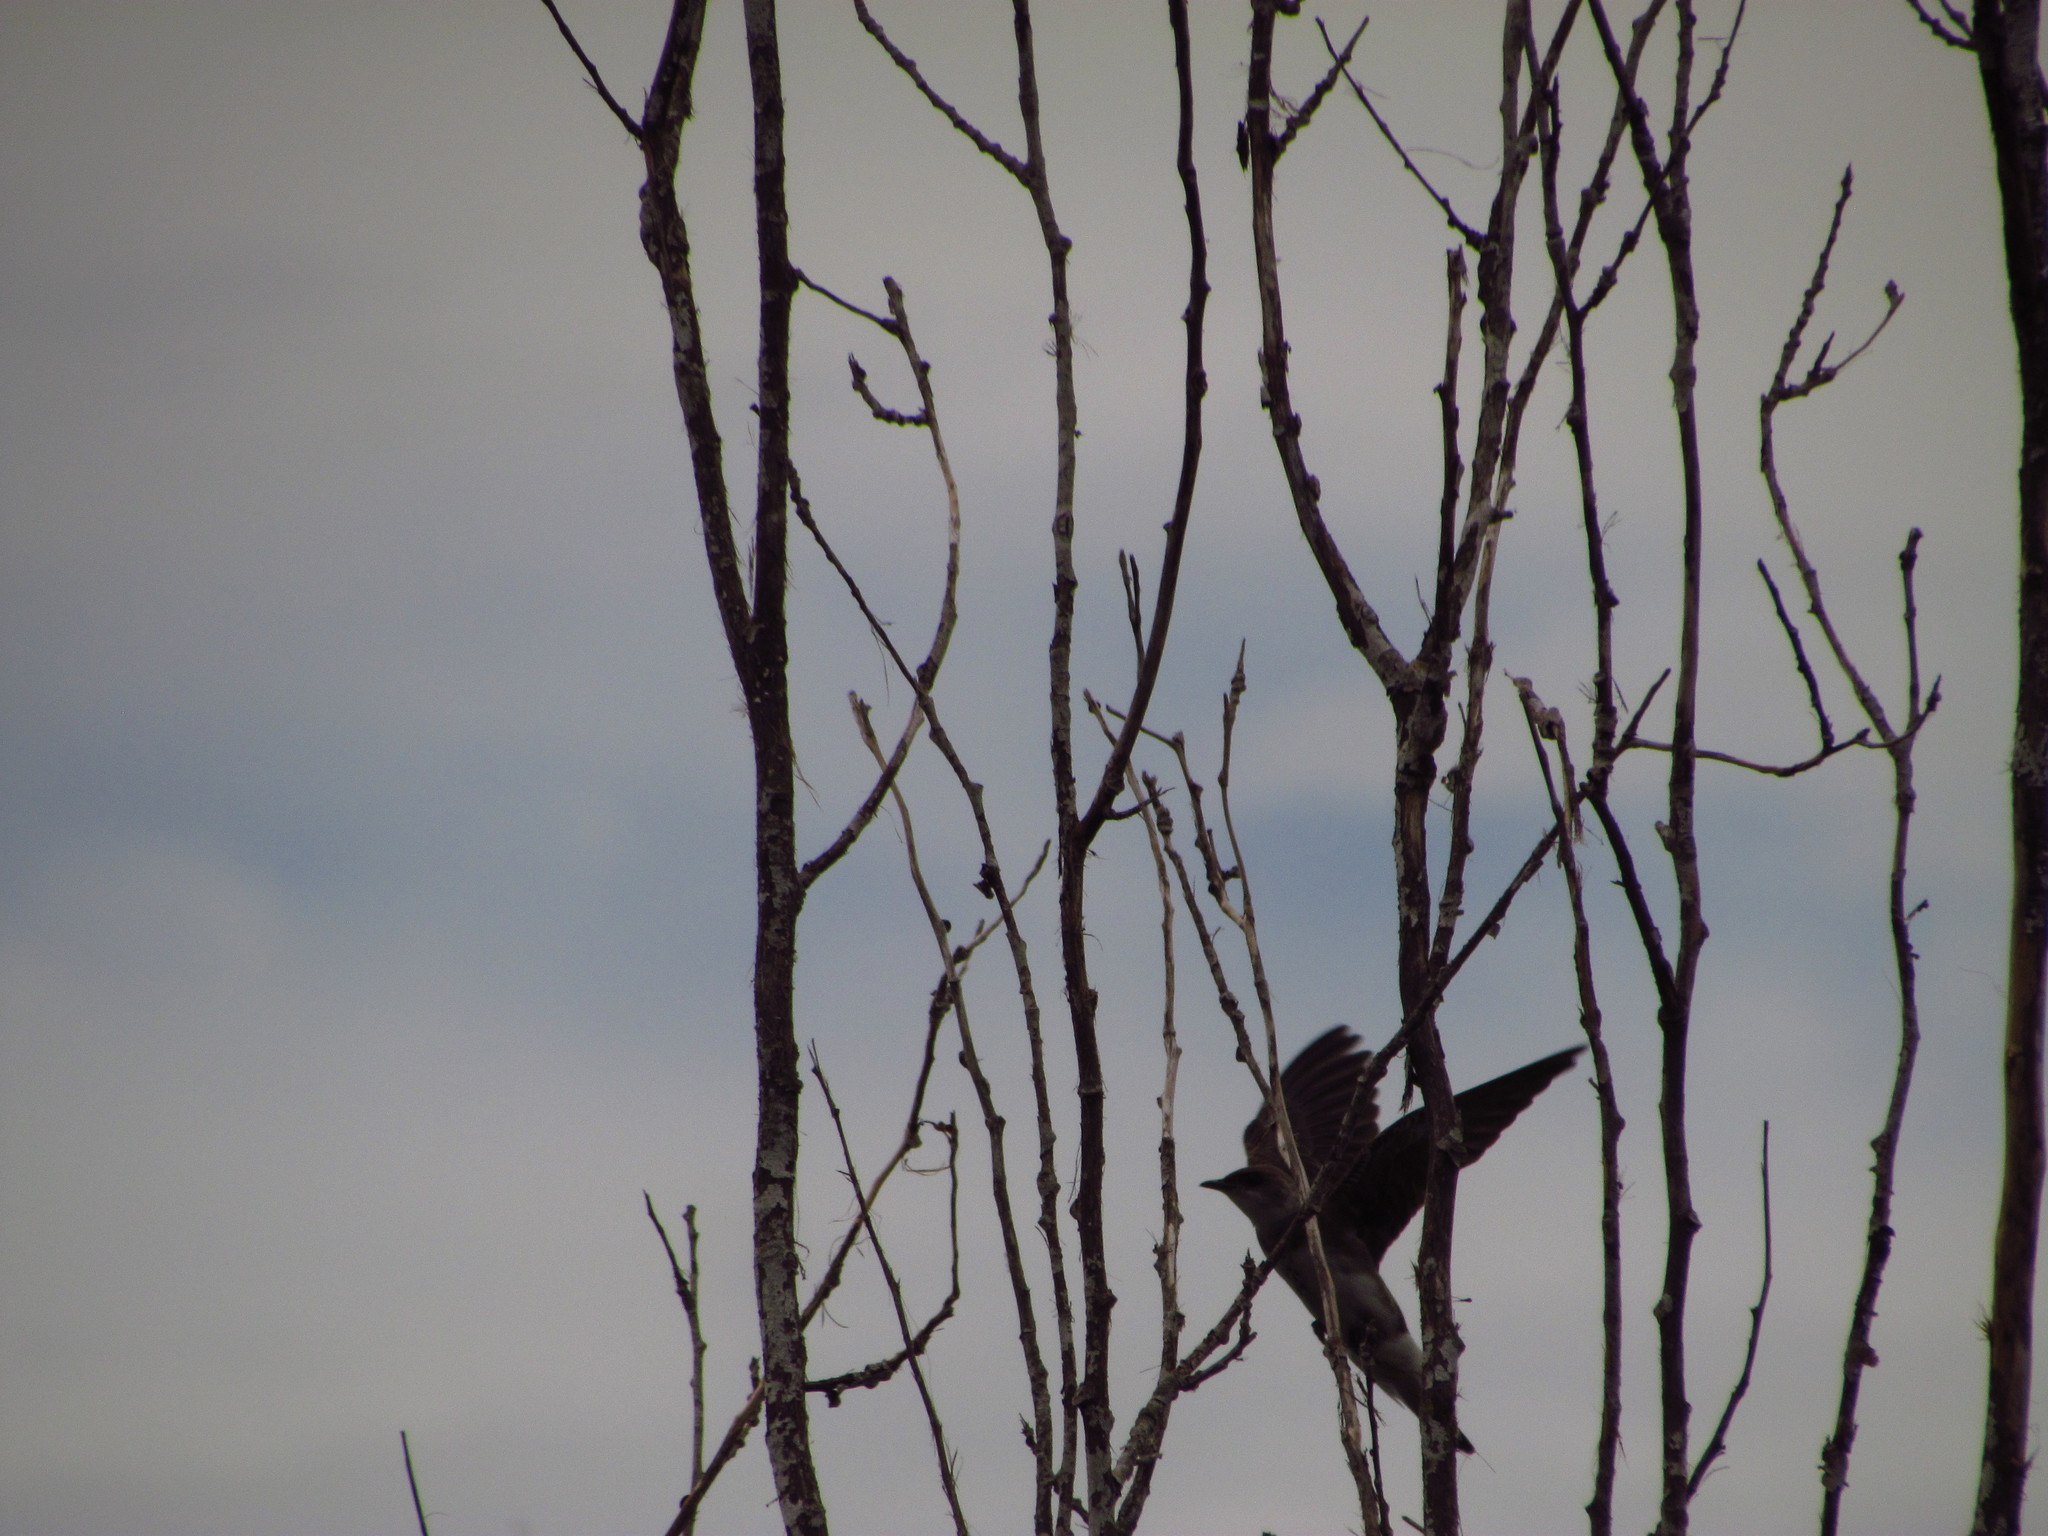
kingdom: Animalia
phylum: Chordata
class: Aves
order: Passeriformes
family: Hirundinidae
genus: Progne
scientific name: Progne tapera
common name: Brown-chested martin
